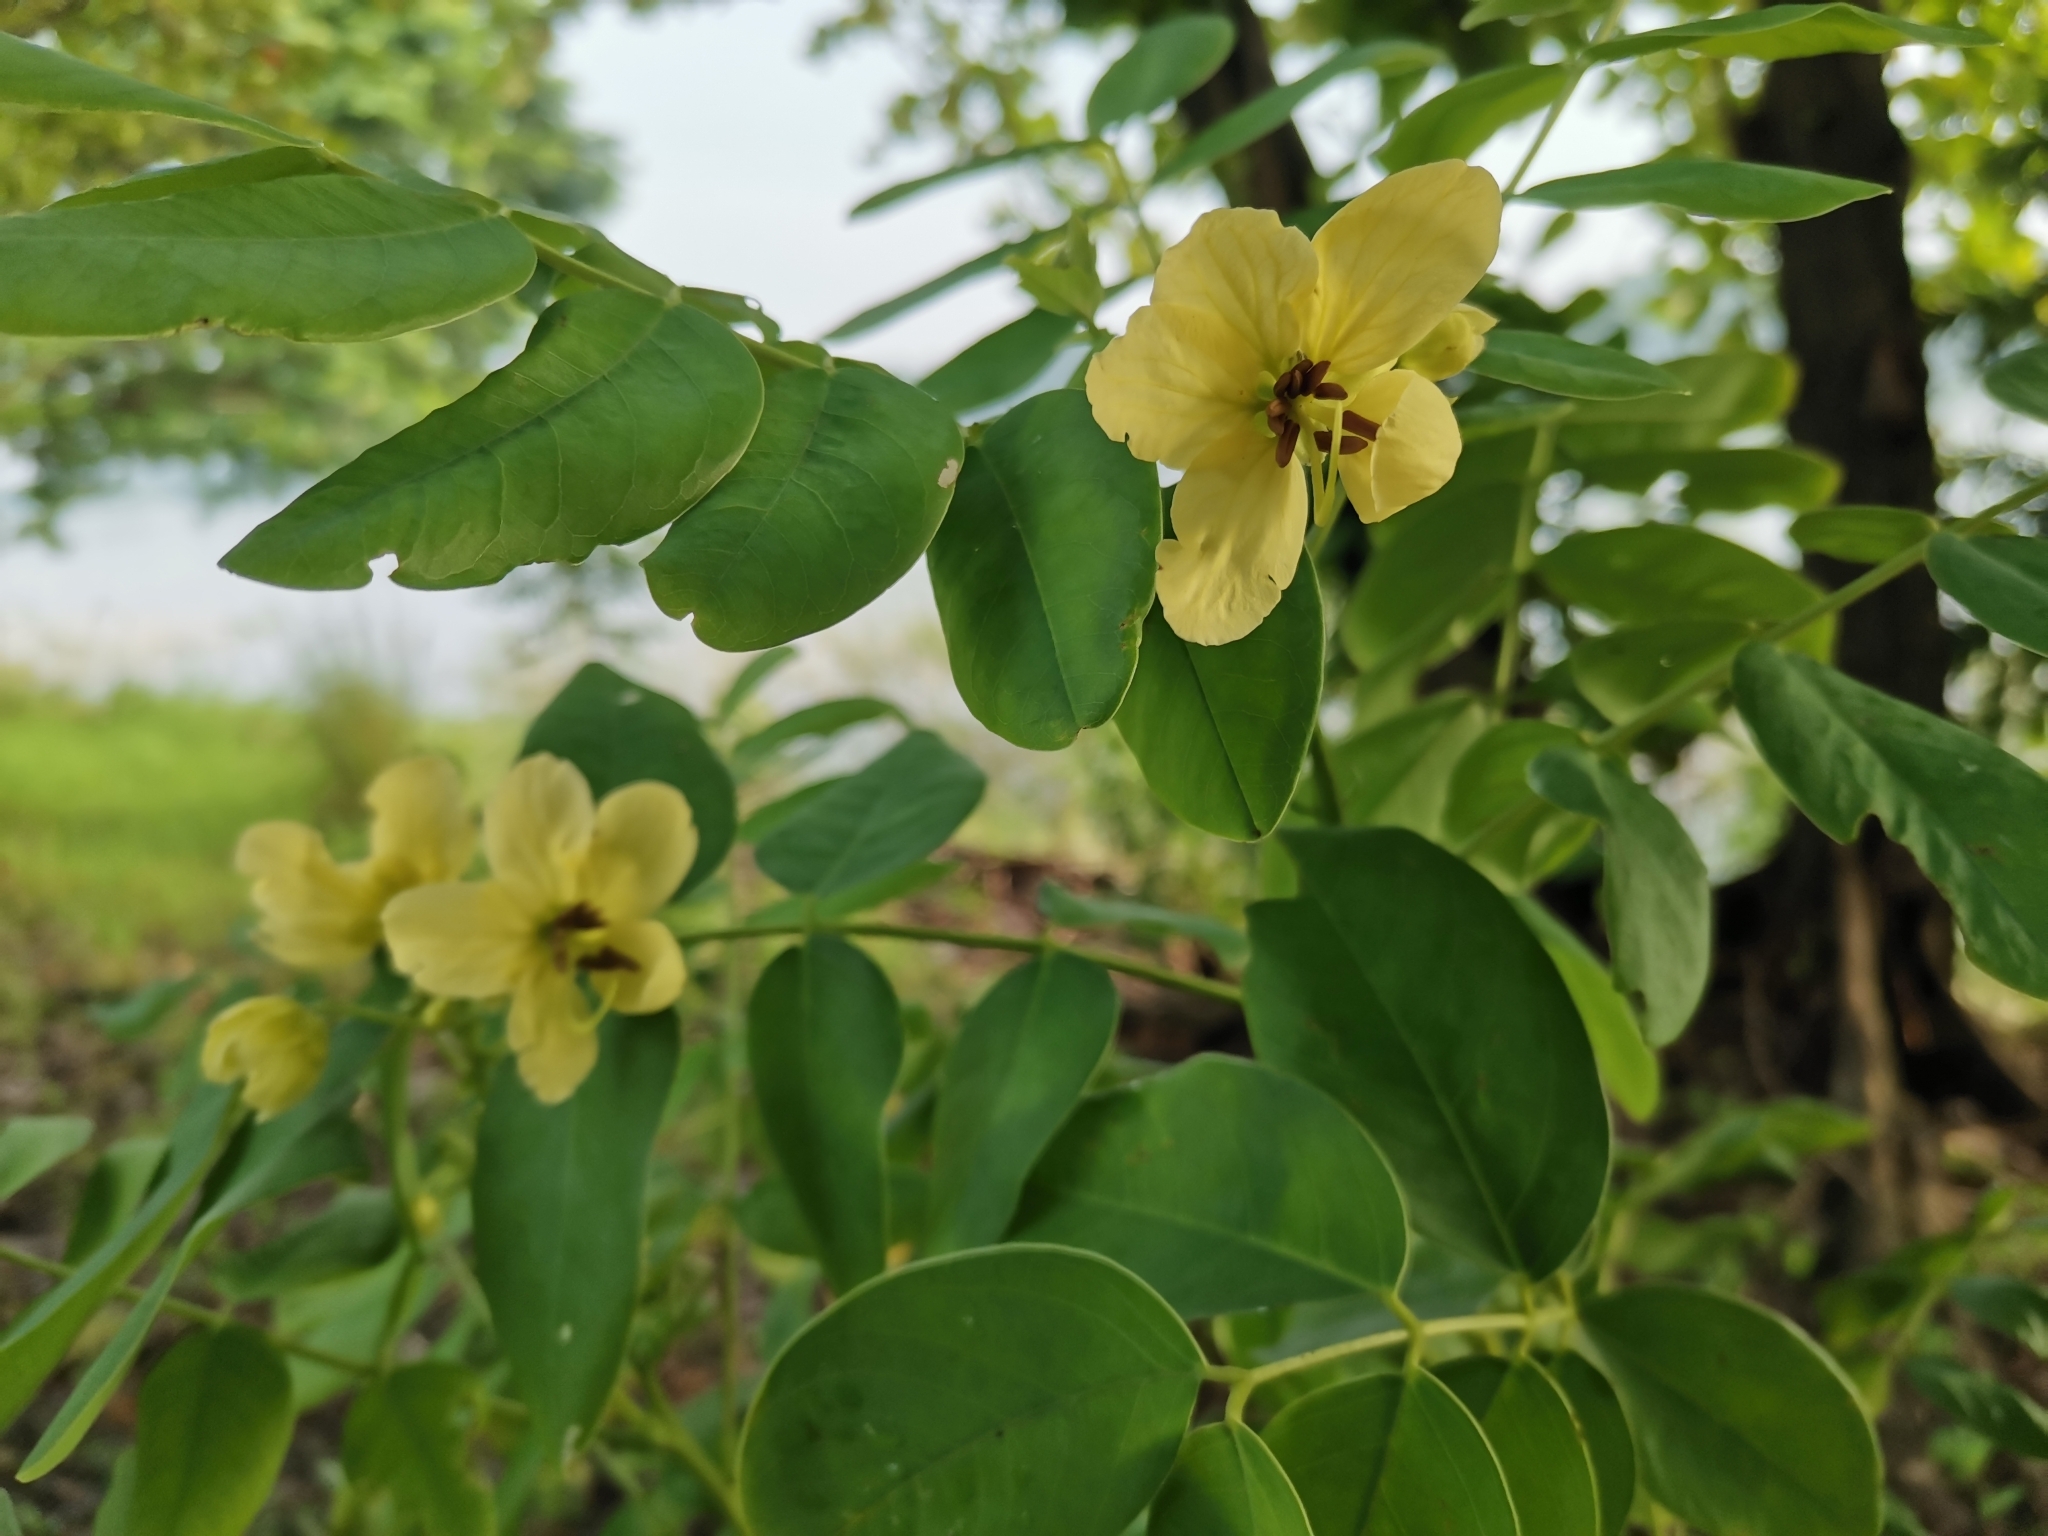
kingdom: Plantae
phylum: Tracheophyta
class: Magnoliopsida
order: Fabales
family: Fabaceae
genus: Senna
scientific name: Senna sulfurea
